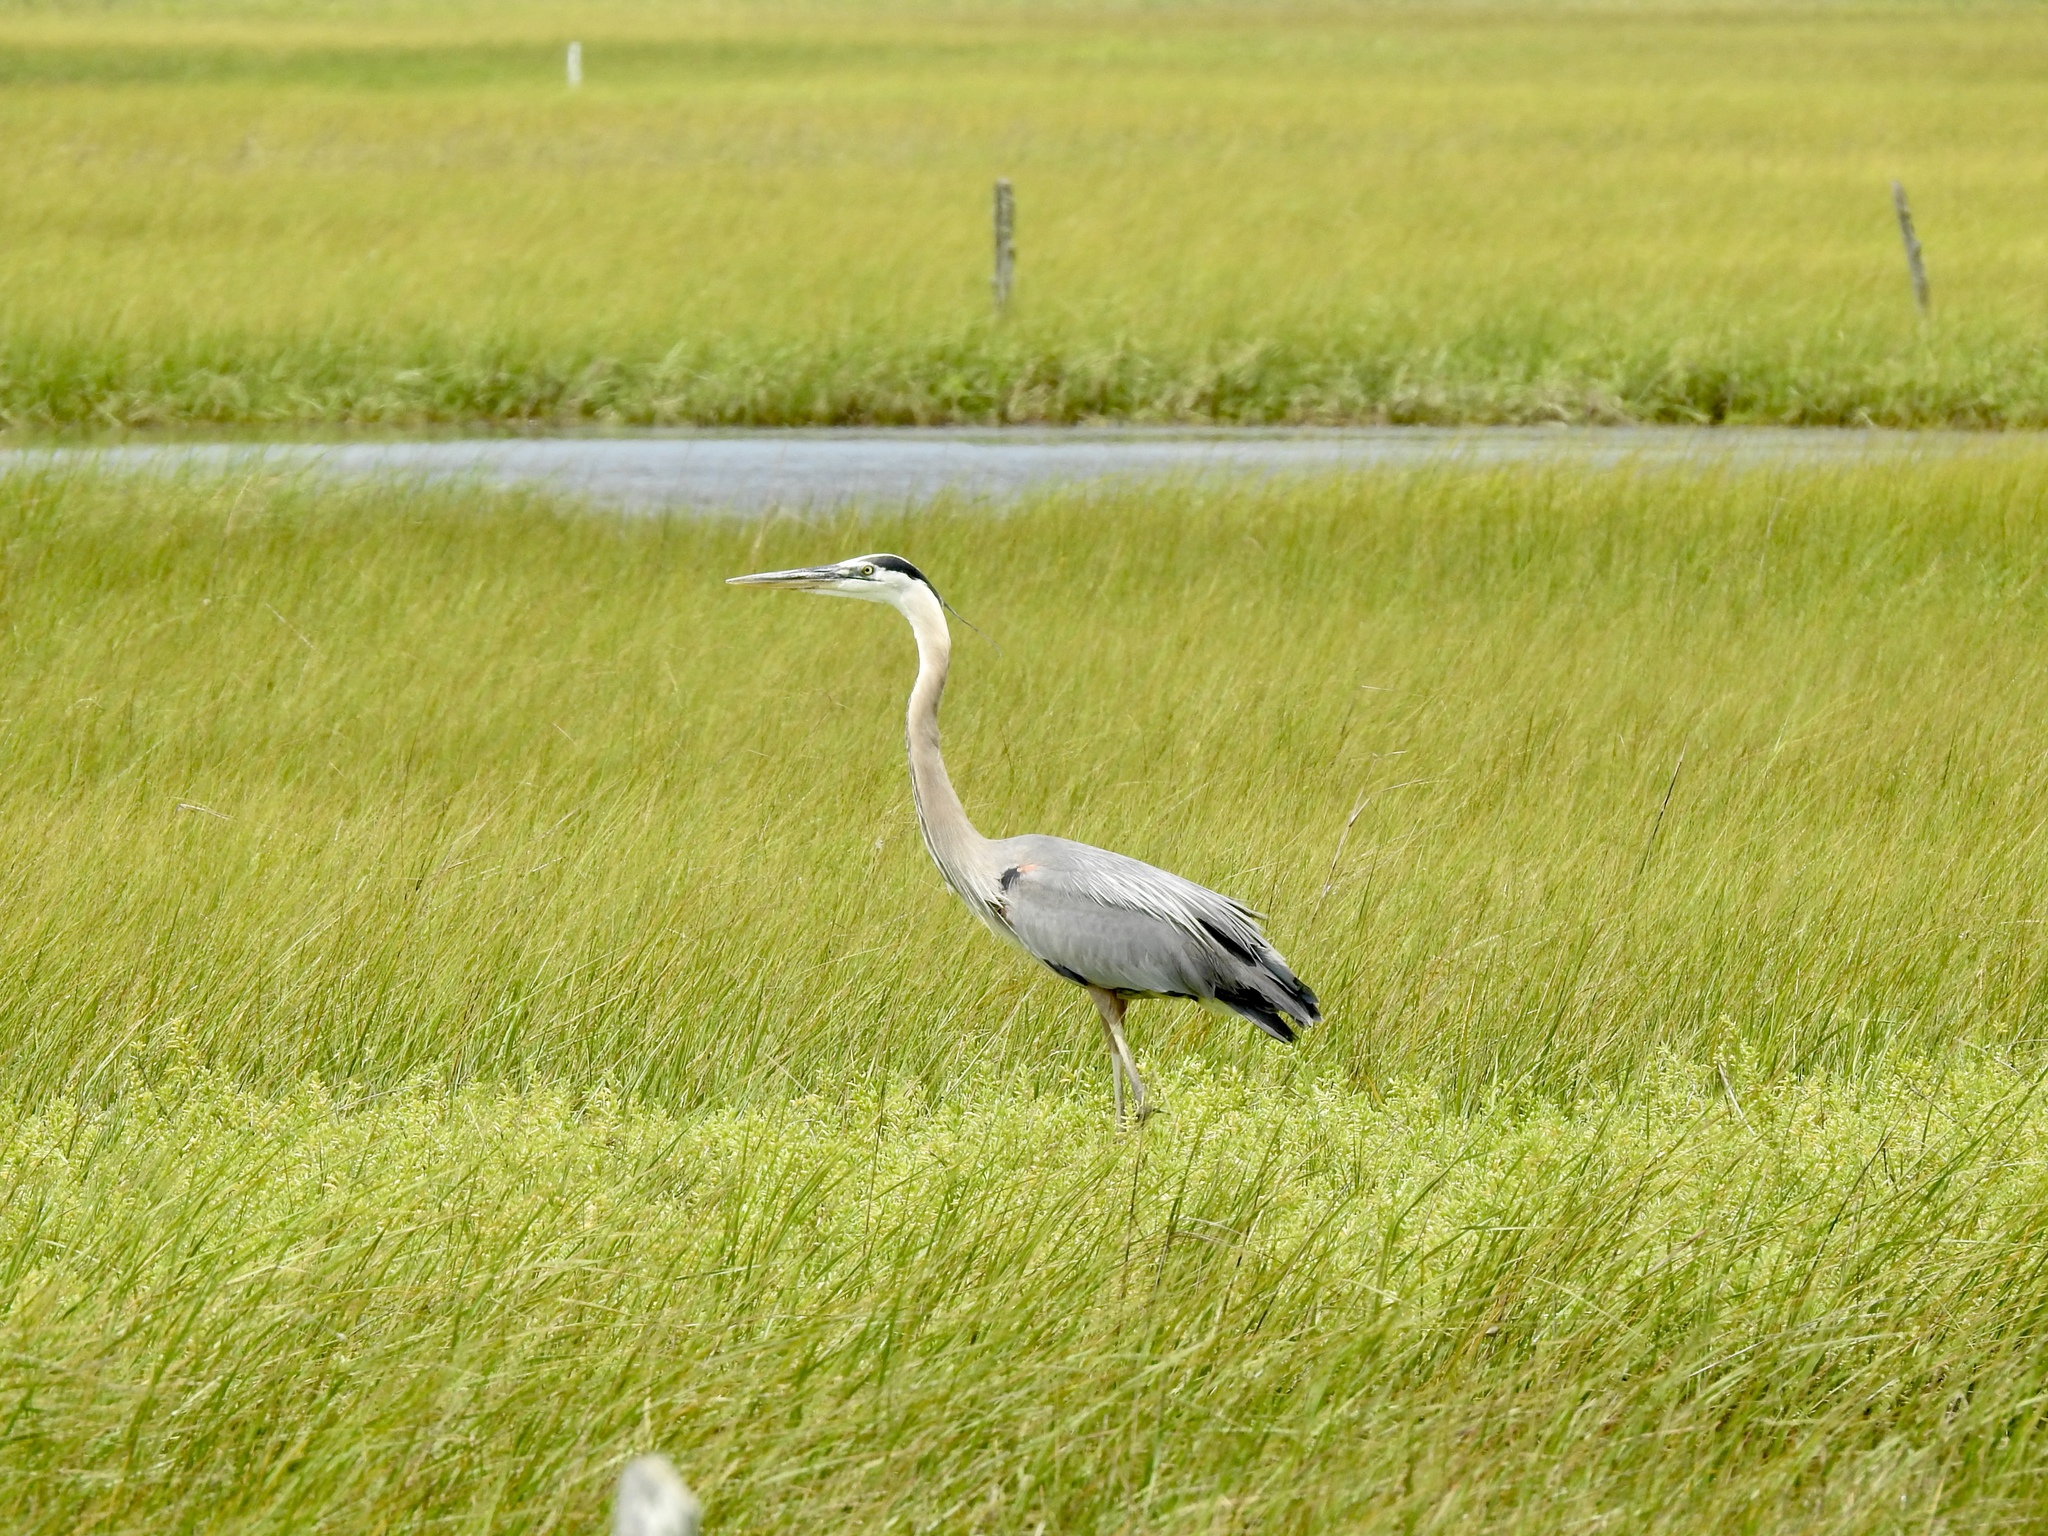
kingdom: Animalia
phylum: Chordata
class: Aves
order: Pelecaniformes
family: Ardeidae
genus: Ardea
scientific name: Ardea herodias
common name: Great blue heron
